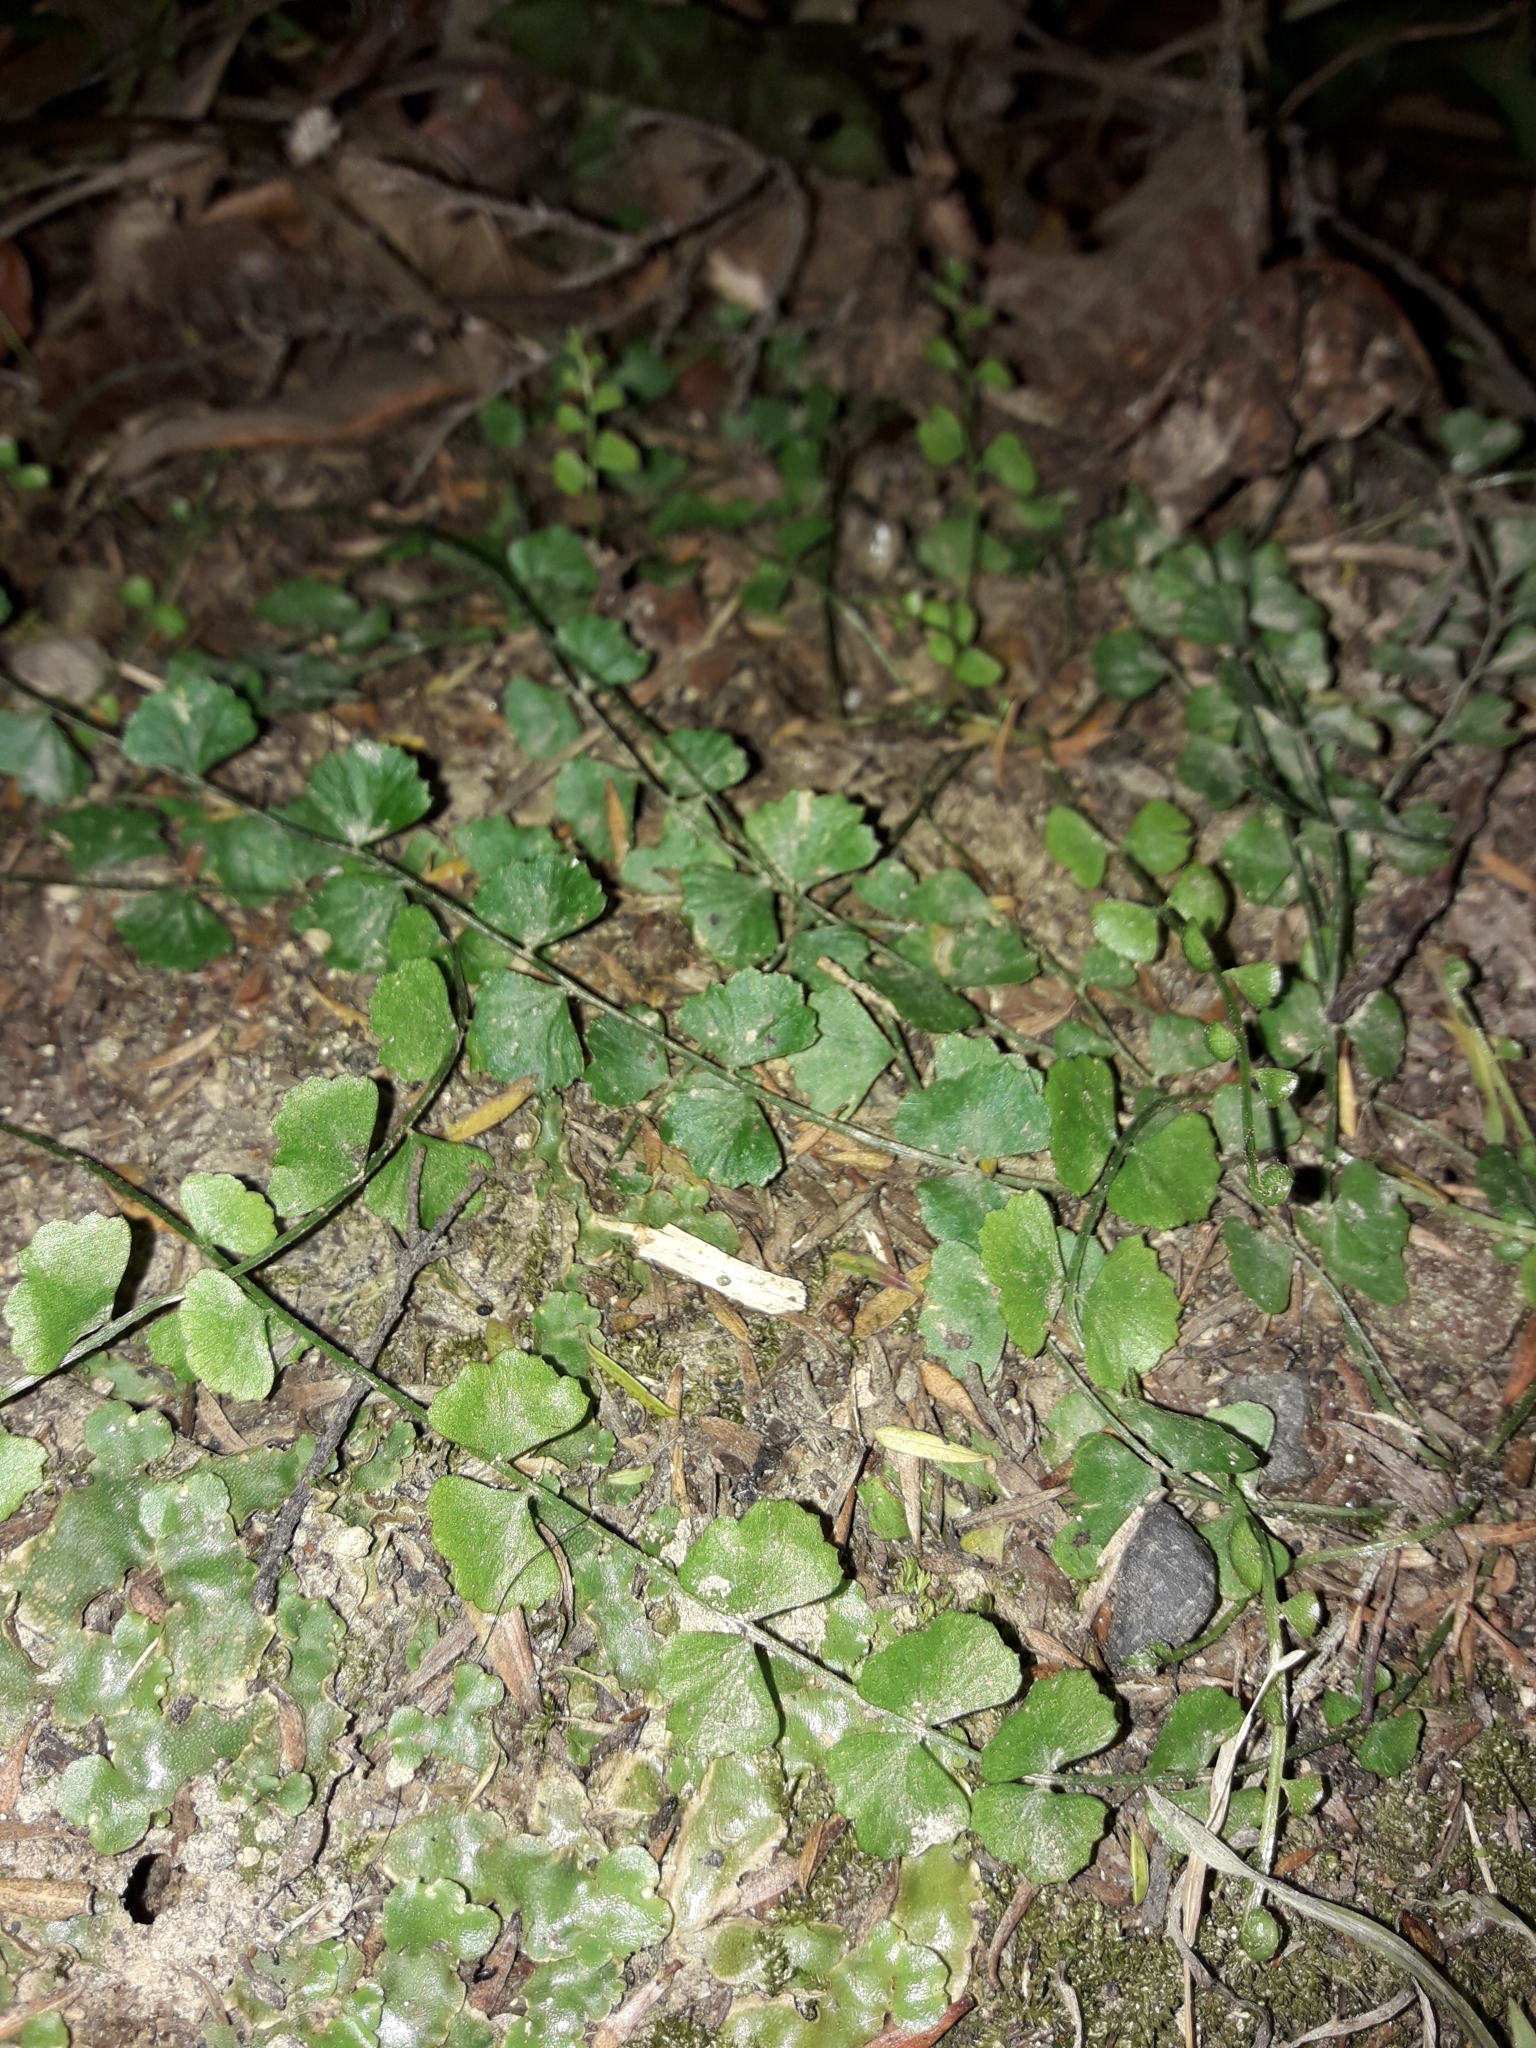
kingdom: Plantae
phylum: Tracheophyta
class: Polypodiopsida
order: Polypodiales
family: Aspleniaceae
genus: Asplenium
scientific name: Asplenium flabellifolium
